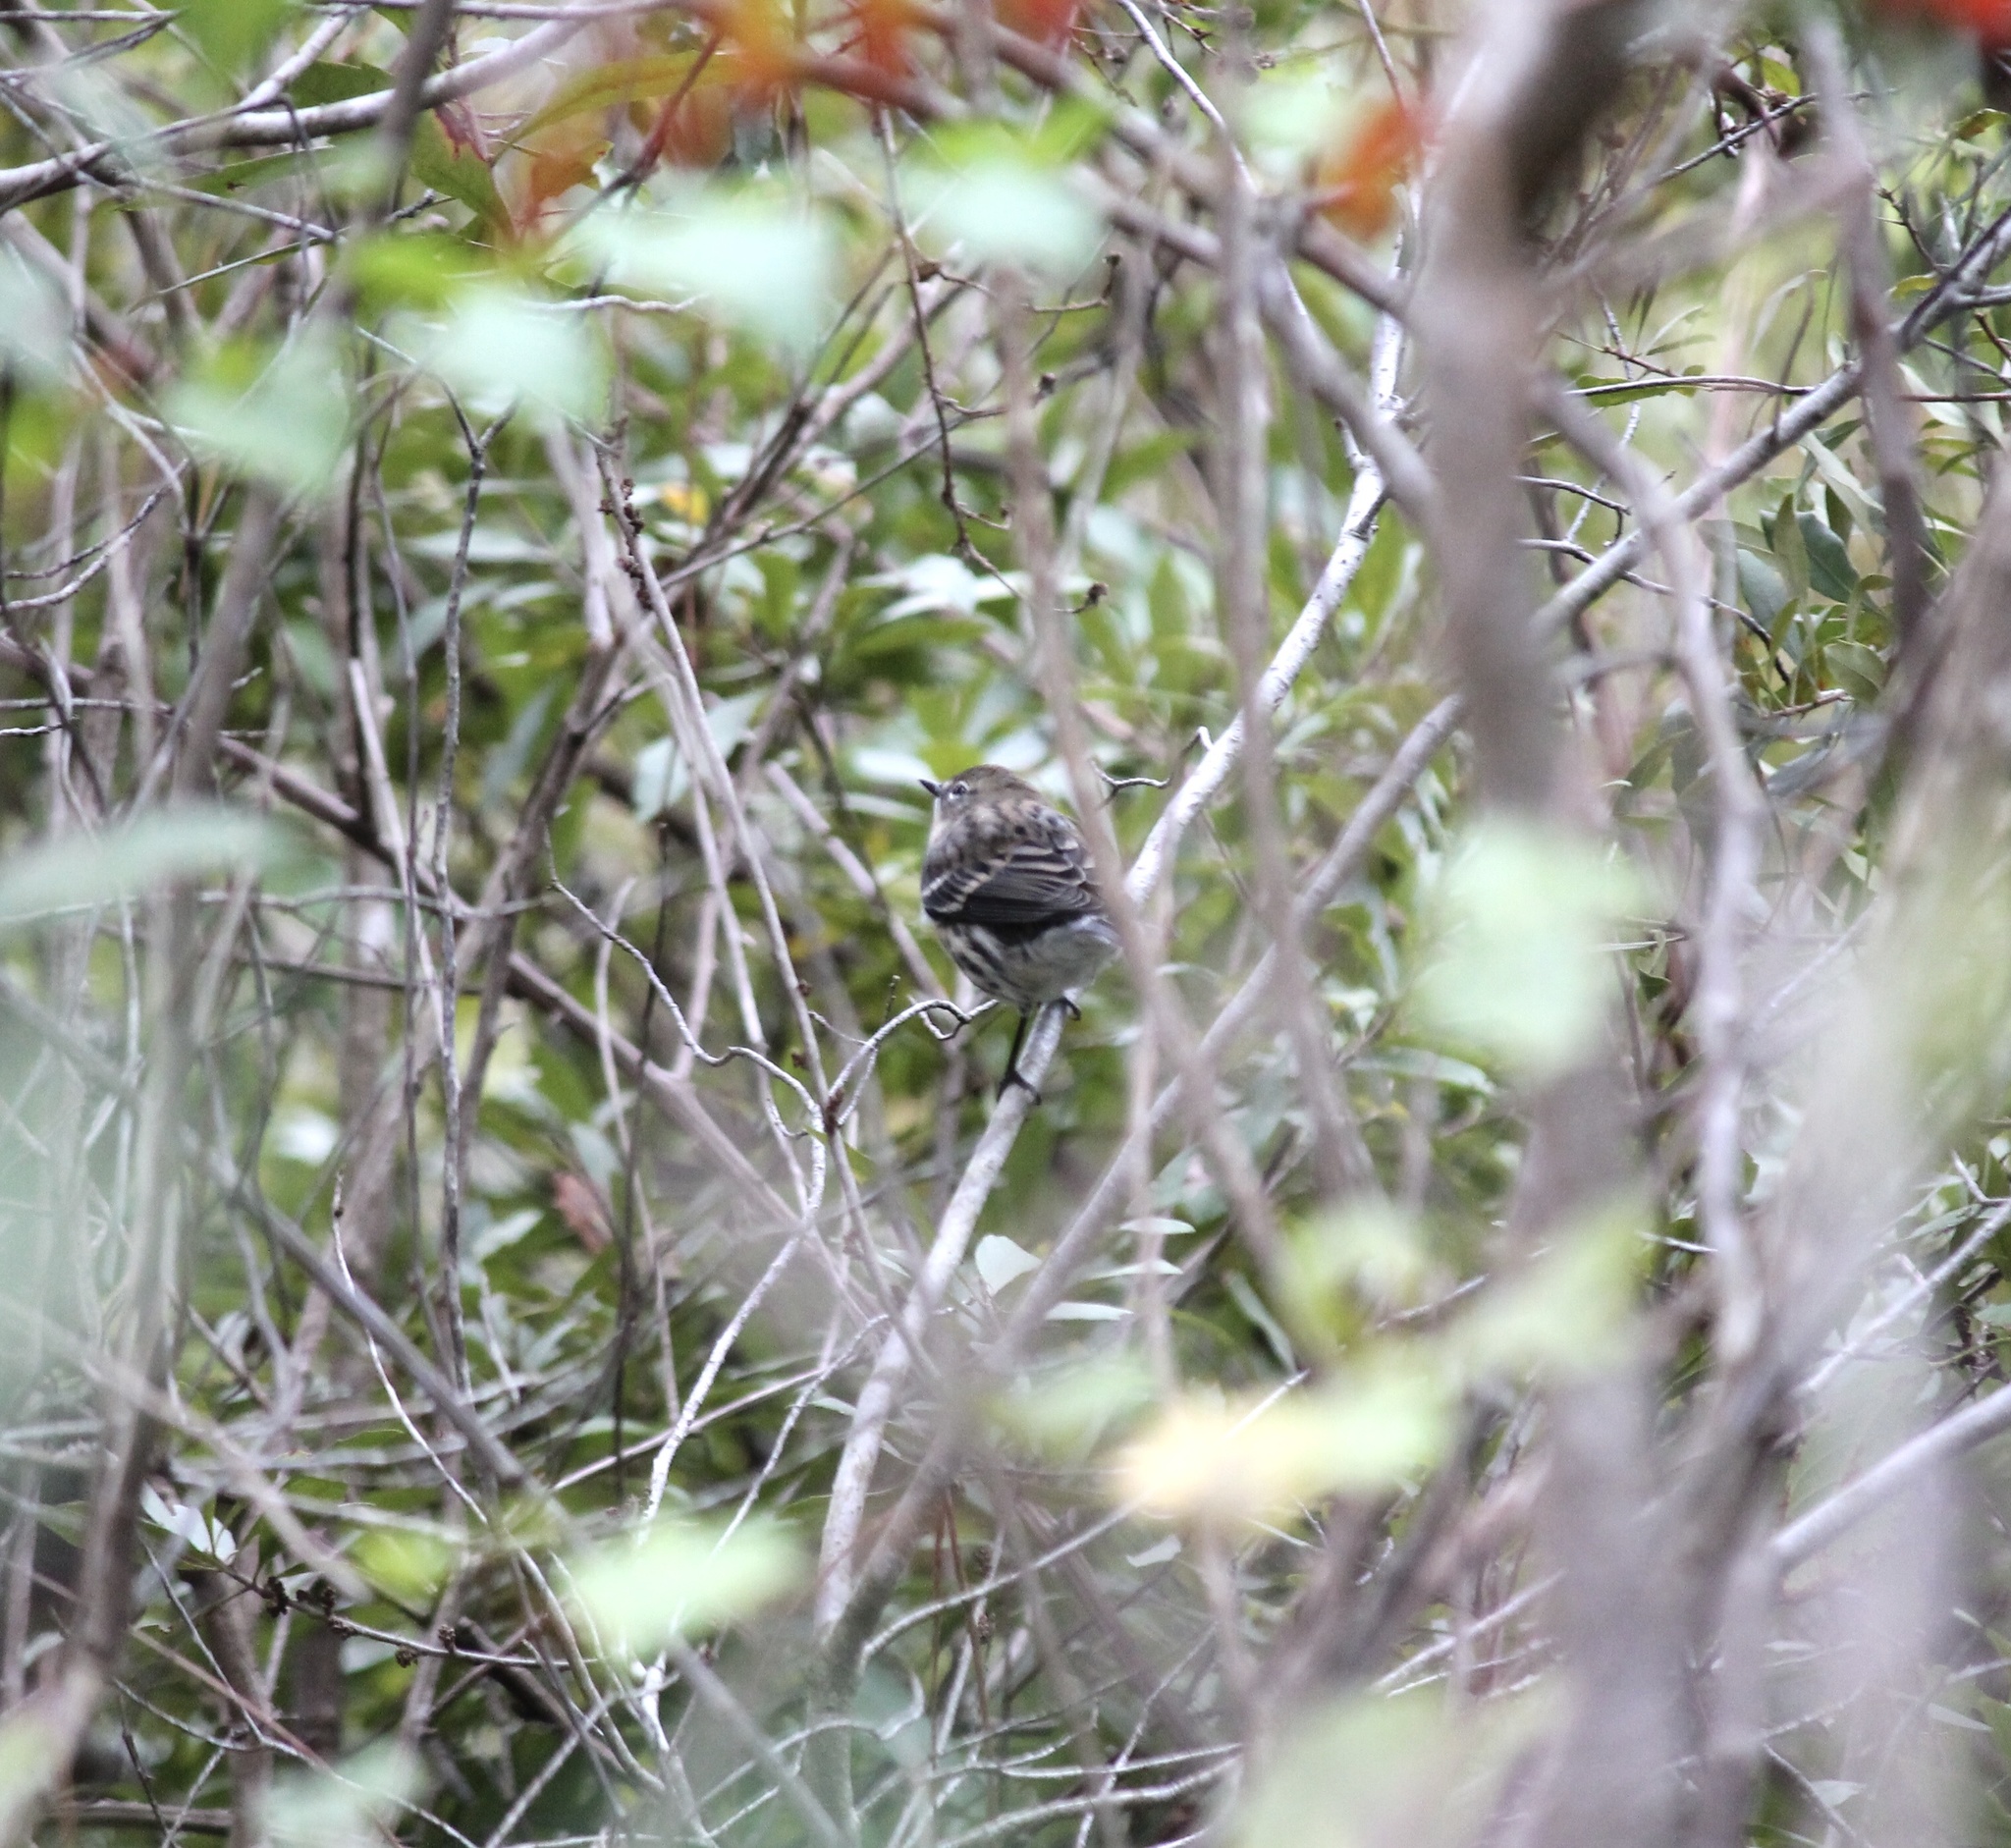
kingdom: Animalia
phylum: Chordata
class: Aves
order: Passeriformes
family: Parulidae
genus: Setophaga
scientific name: Setophaga coronata
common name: Myrtle warbler
